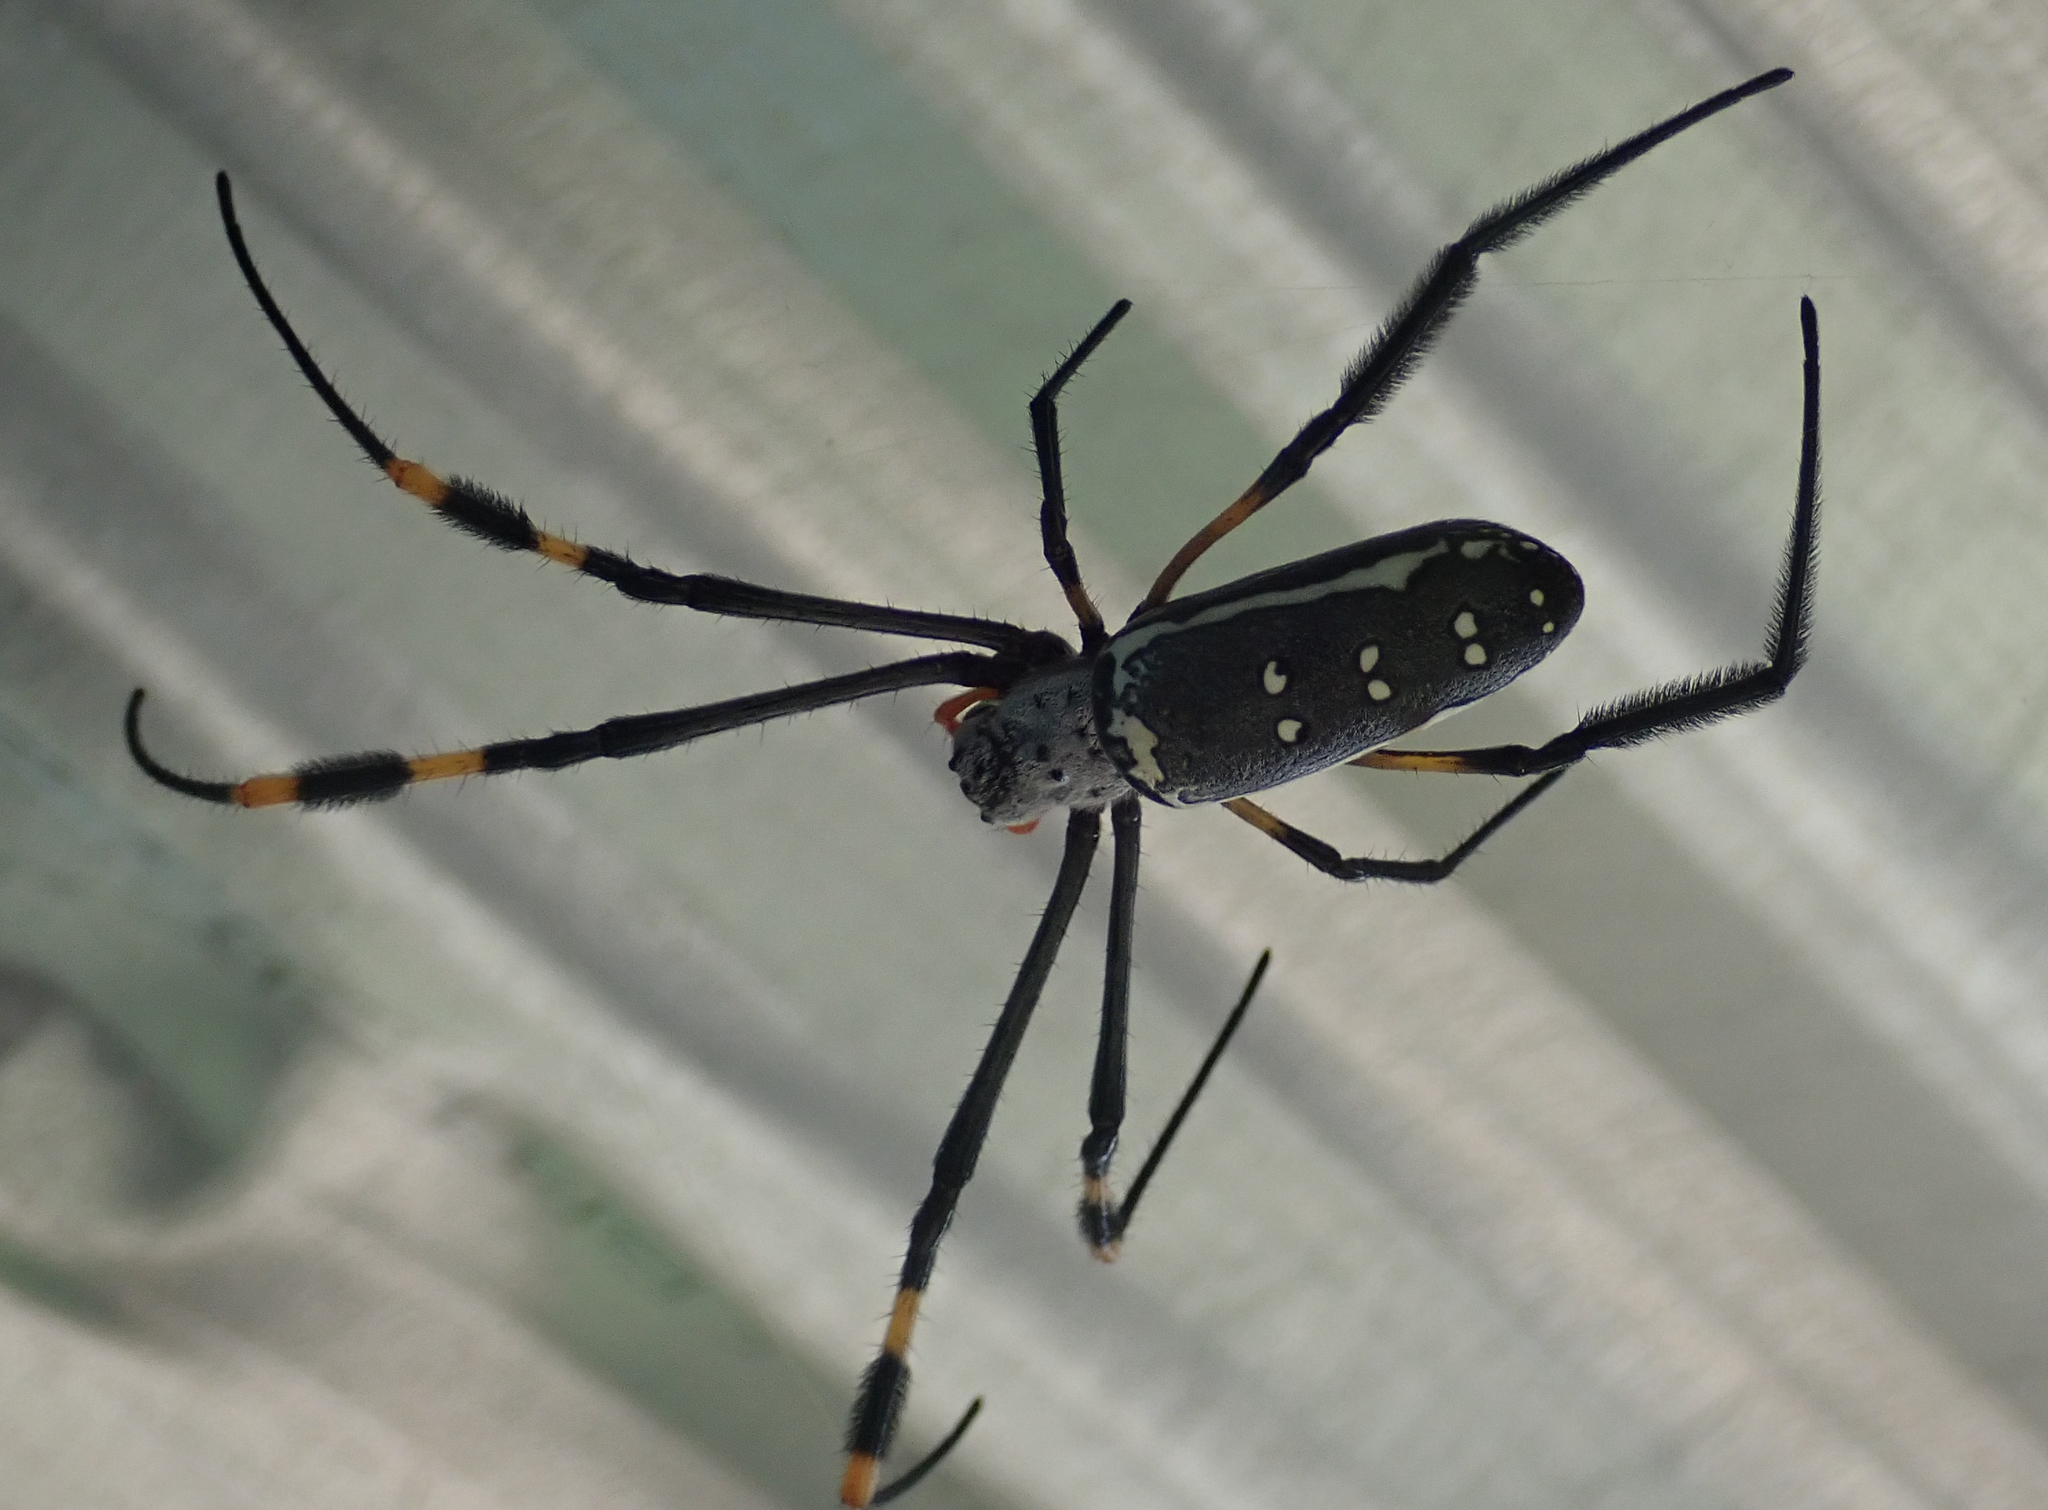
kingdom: Animalia
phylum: Arthropoda
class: Arachnida
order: Araneae
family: Araneidae
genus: Trichonephila
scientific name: Trichonephila senegalensis
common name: Banded golden orb weaver
